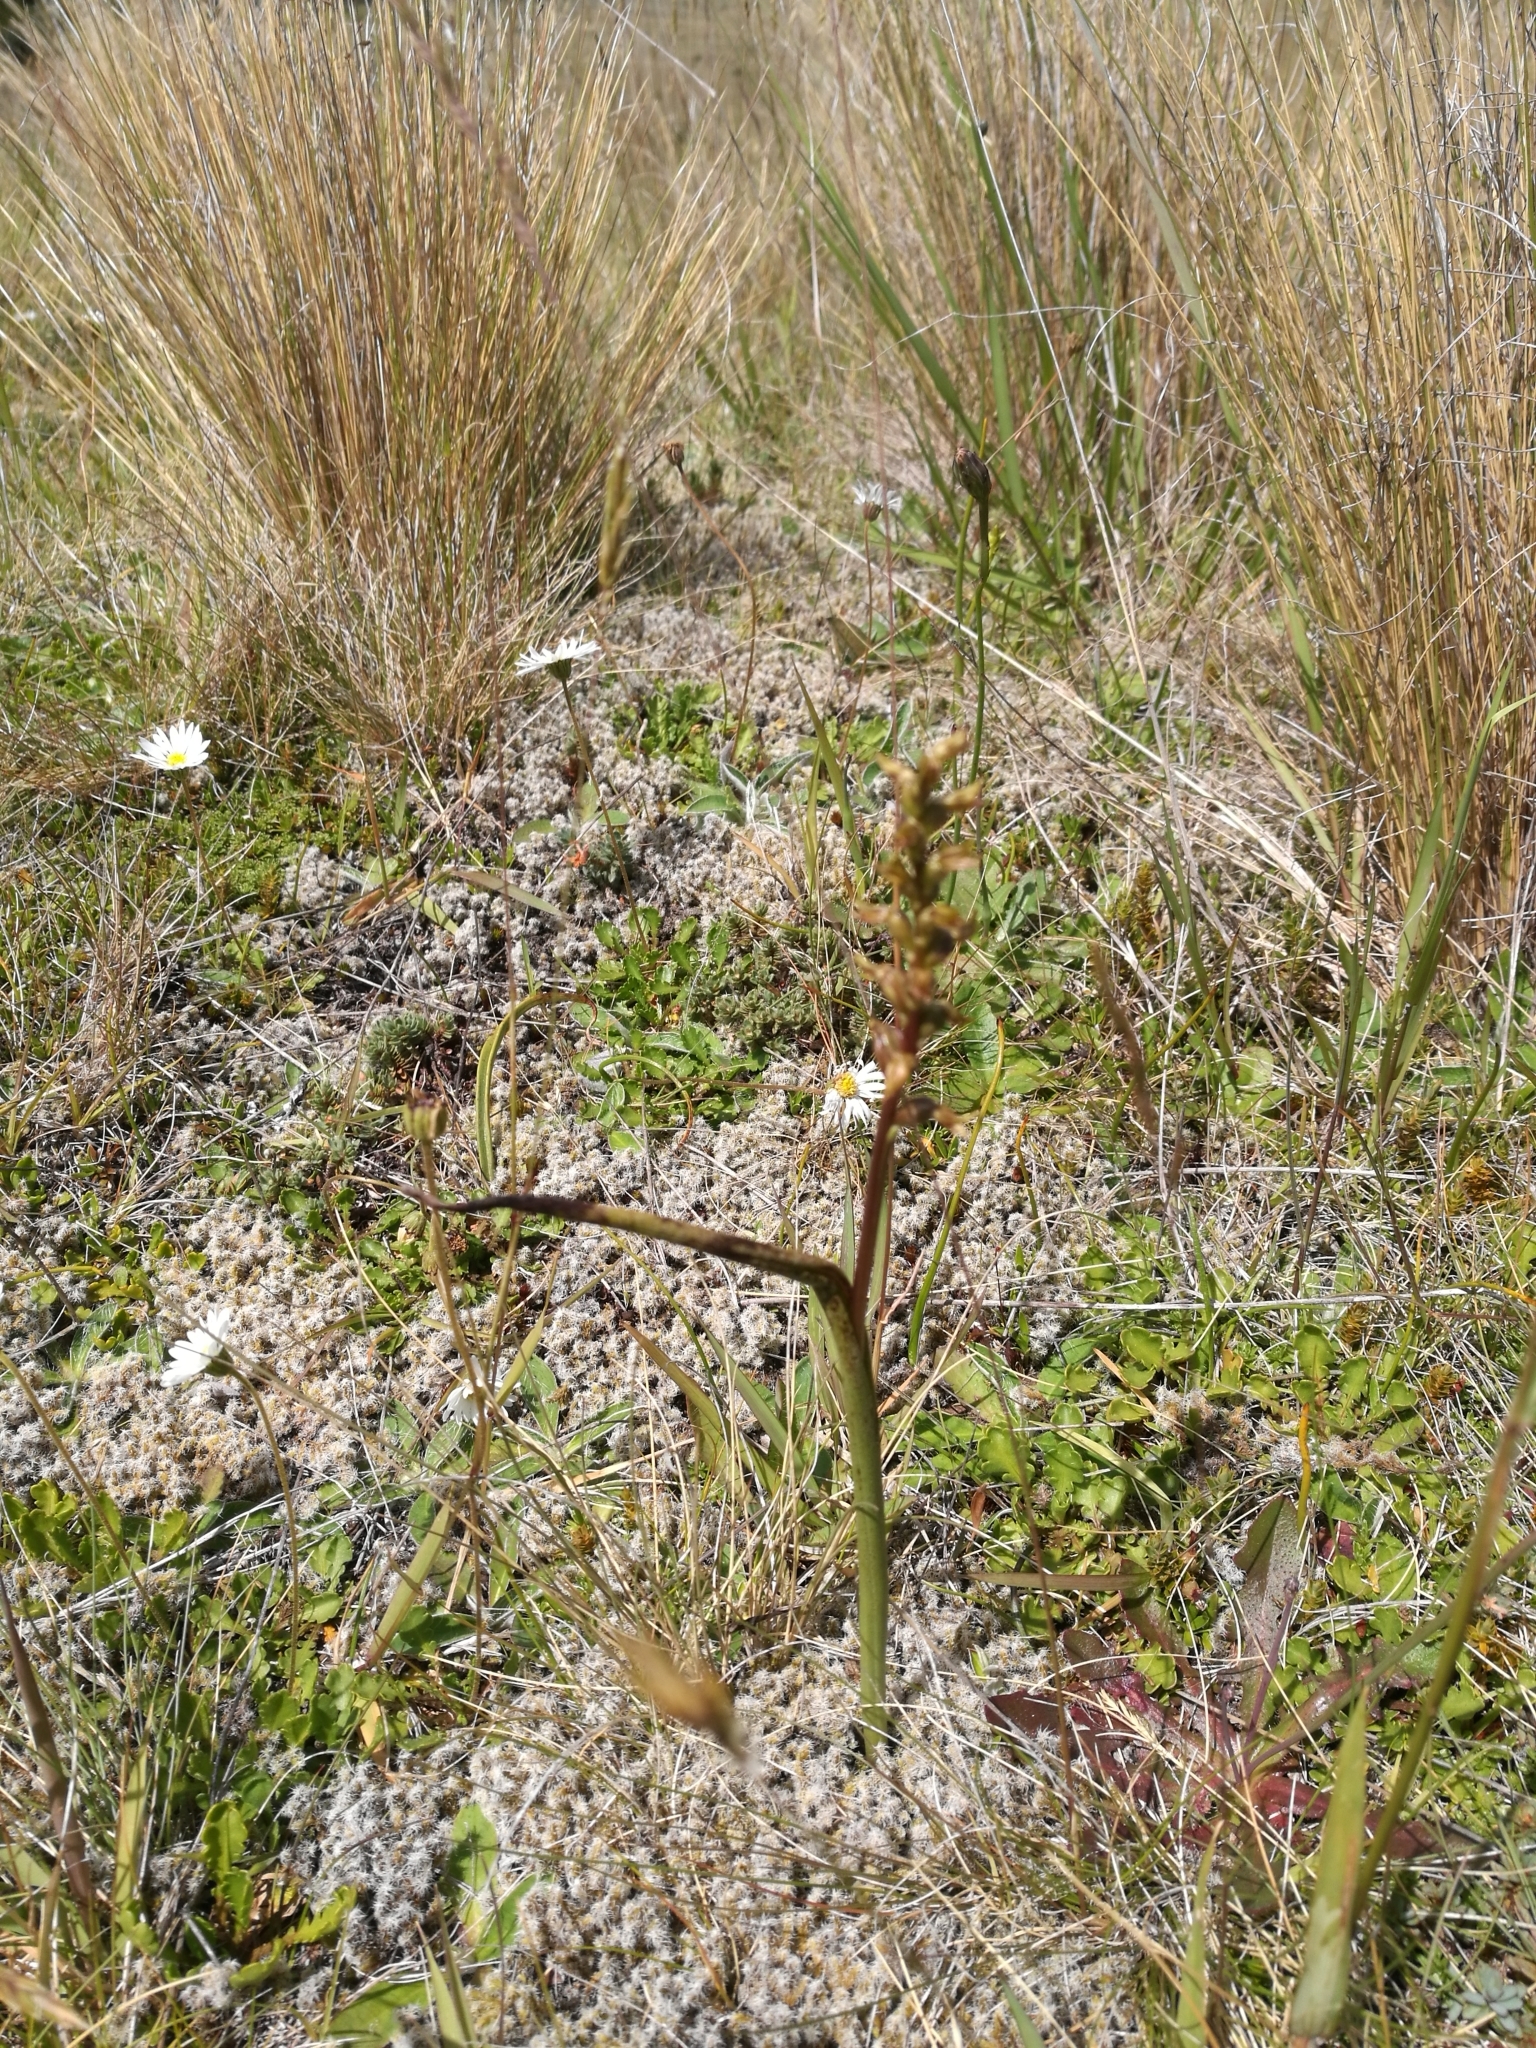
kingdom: Plantae
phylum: Tracheophyta
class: Liliopsida
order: Asparagales
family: Orchidaceae
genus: Prasophyllum
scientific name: Prasophyllum colensoi
